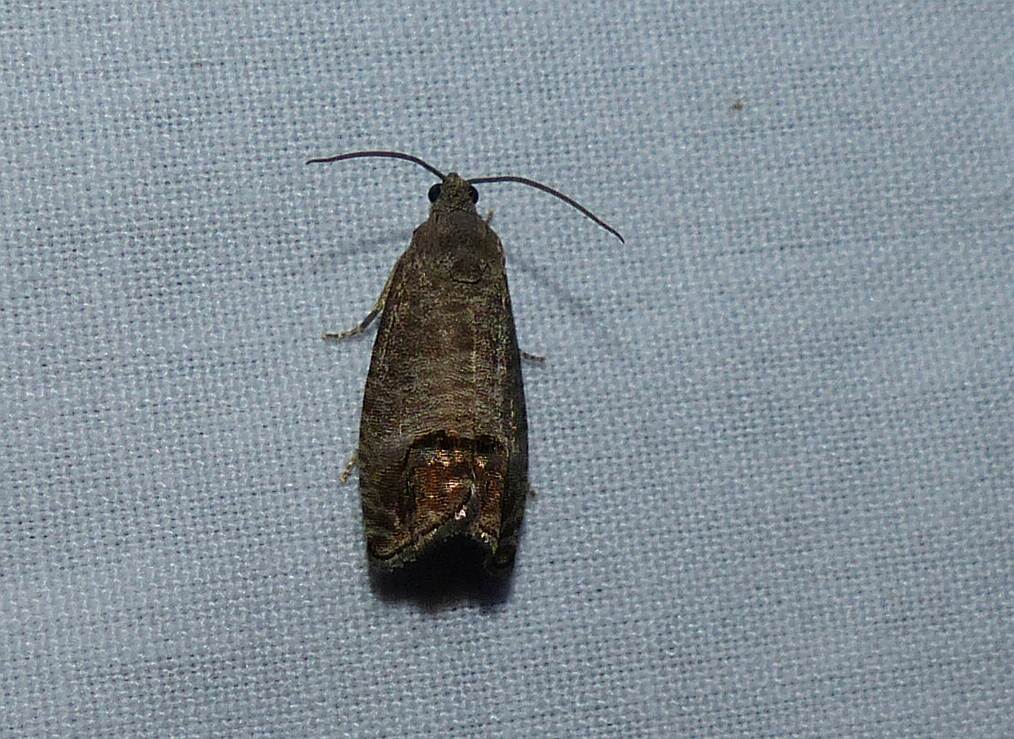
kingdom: Animalia
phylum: Arthropoda
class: Insecta
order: Lepidoptera
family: Tortricidae
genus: Cydia
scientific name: Cydia pomonella
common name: Codling moth
